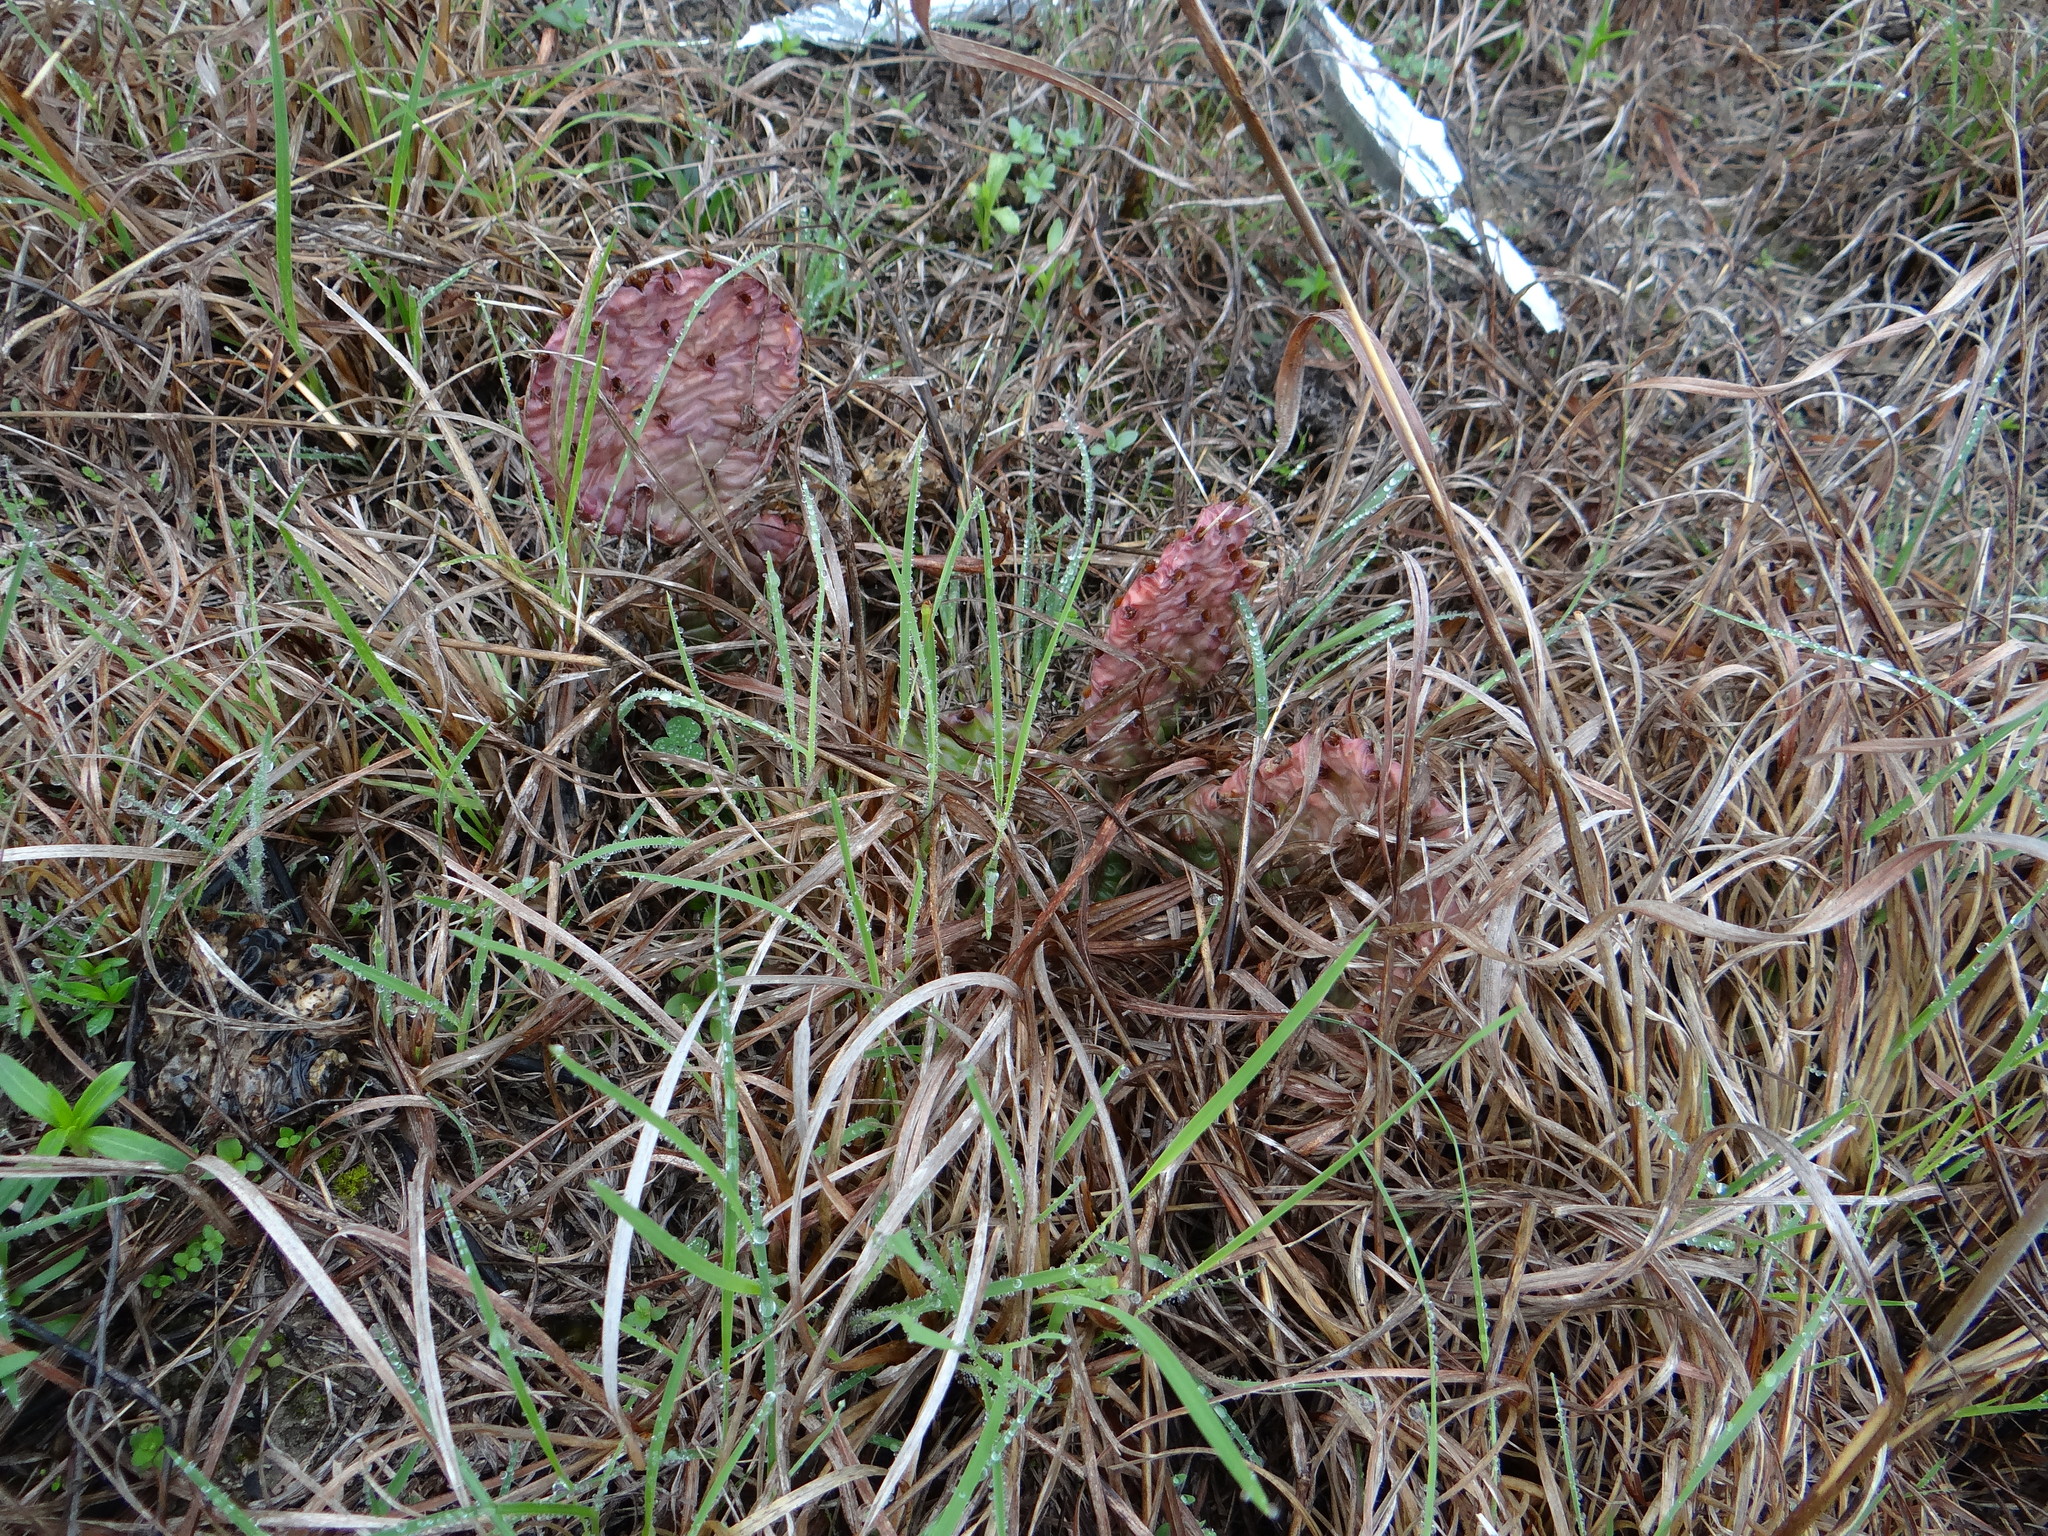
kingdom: Plantae
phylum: Tracheophyta
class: Magnoliopsida
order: Caryophyllales
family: Cactaceae
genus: Opuntia
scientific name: Opuntia macrorhiza
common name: Grassland pricklypear
